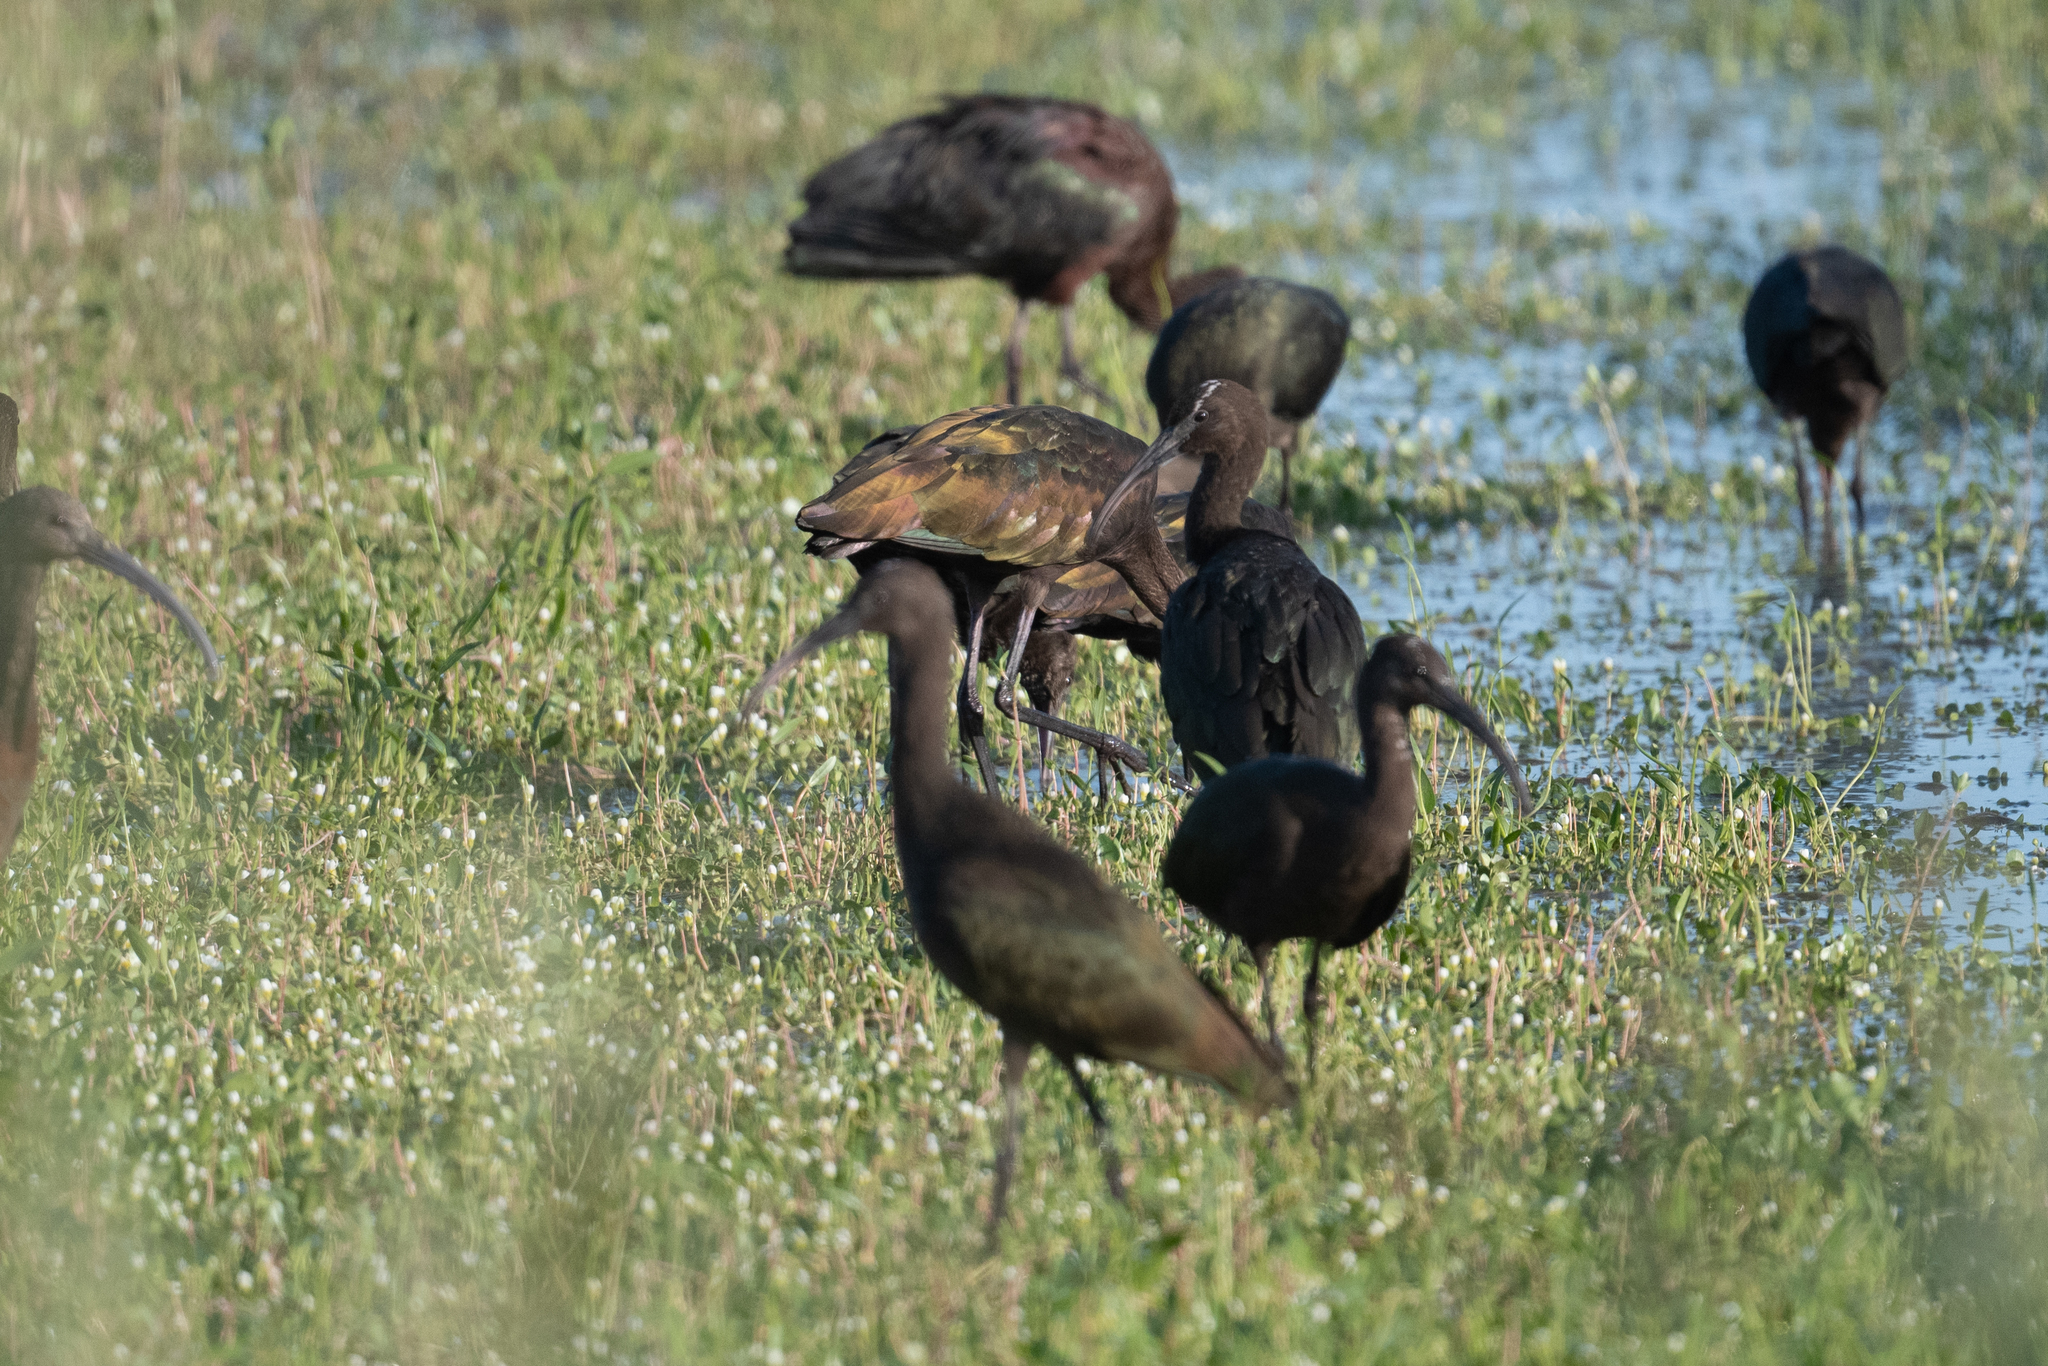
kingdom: Animalia
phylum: Chordata
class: Aves
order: Pelecaniformes
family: Threskiornithidae
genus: Plegadis
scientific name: Plegadis chihi
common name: White-faced ibis
